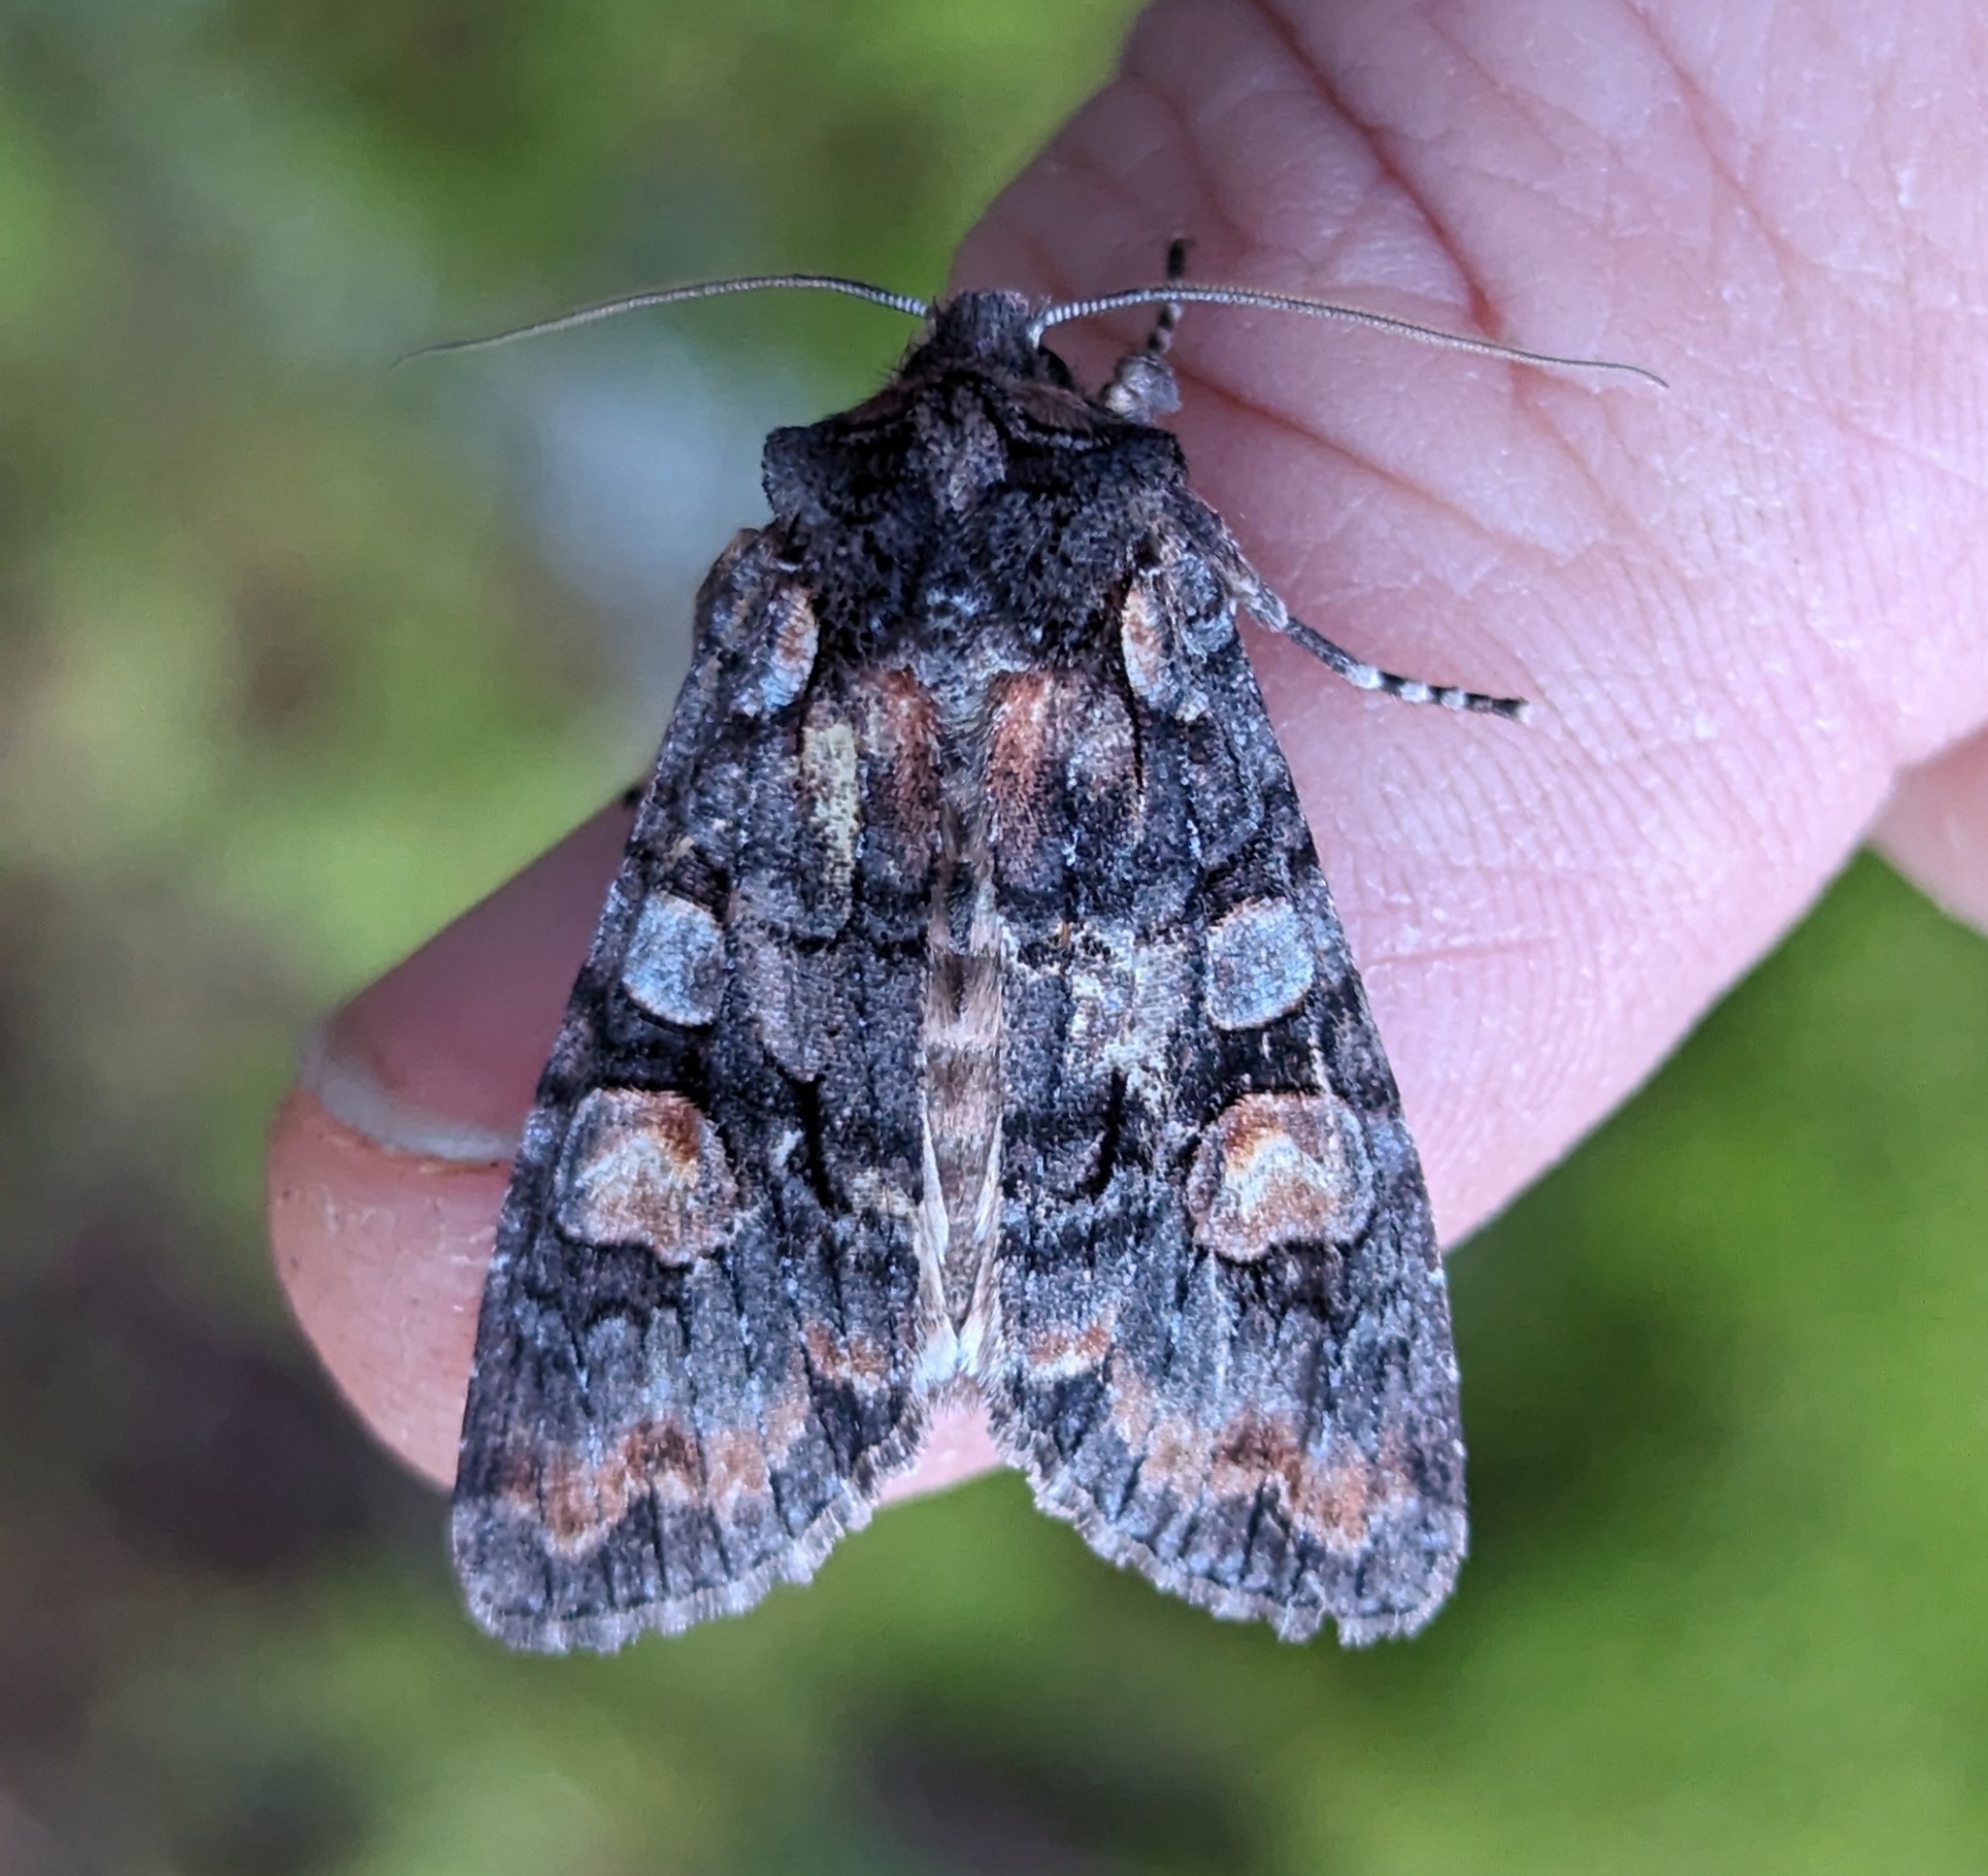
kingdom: Animalia
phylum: Arthropoda
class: Insecta
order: Lepidoptera
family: Noctuidae
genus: Lithophane
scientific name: Lithophane dilatocula
